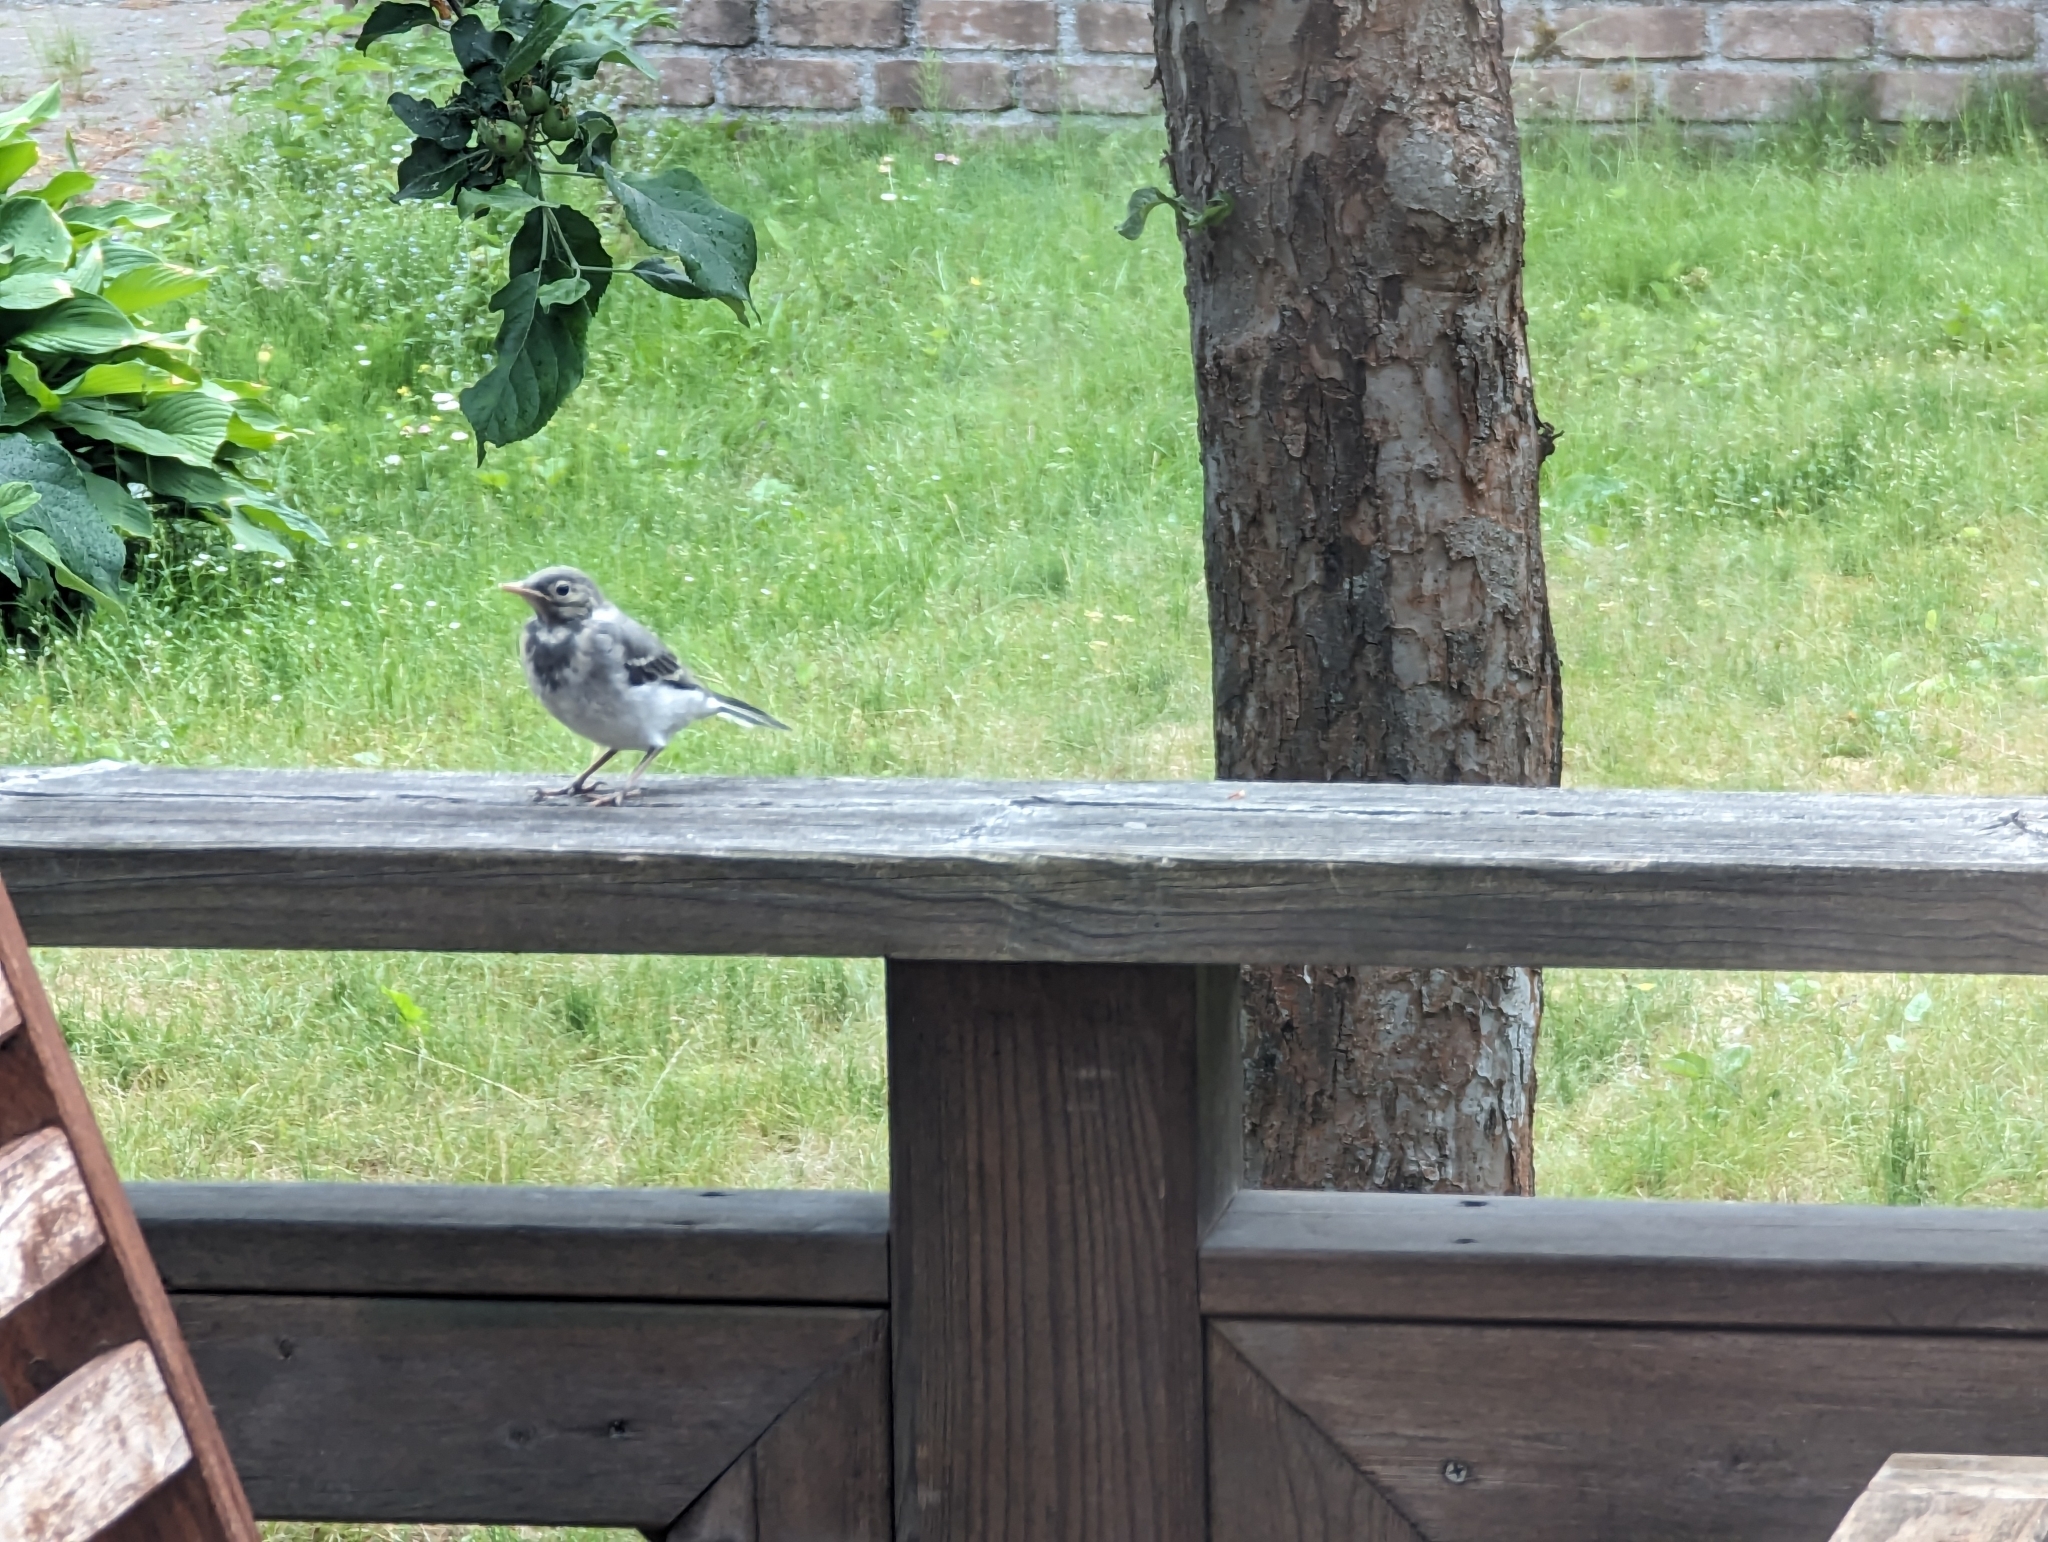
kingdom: Animalia
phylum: Chordata
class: Aves
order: Passeriformes
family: Motacillidae
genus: Motacilla
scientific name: Motacilla alba
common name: White wagtail
